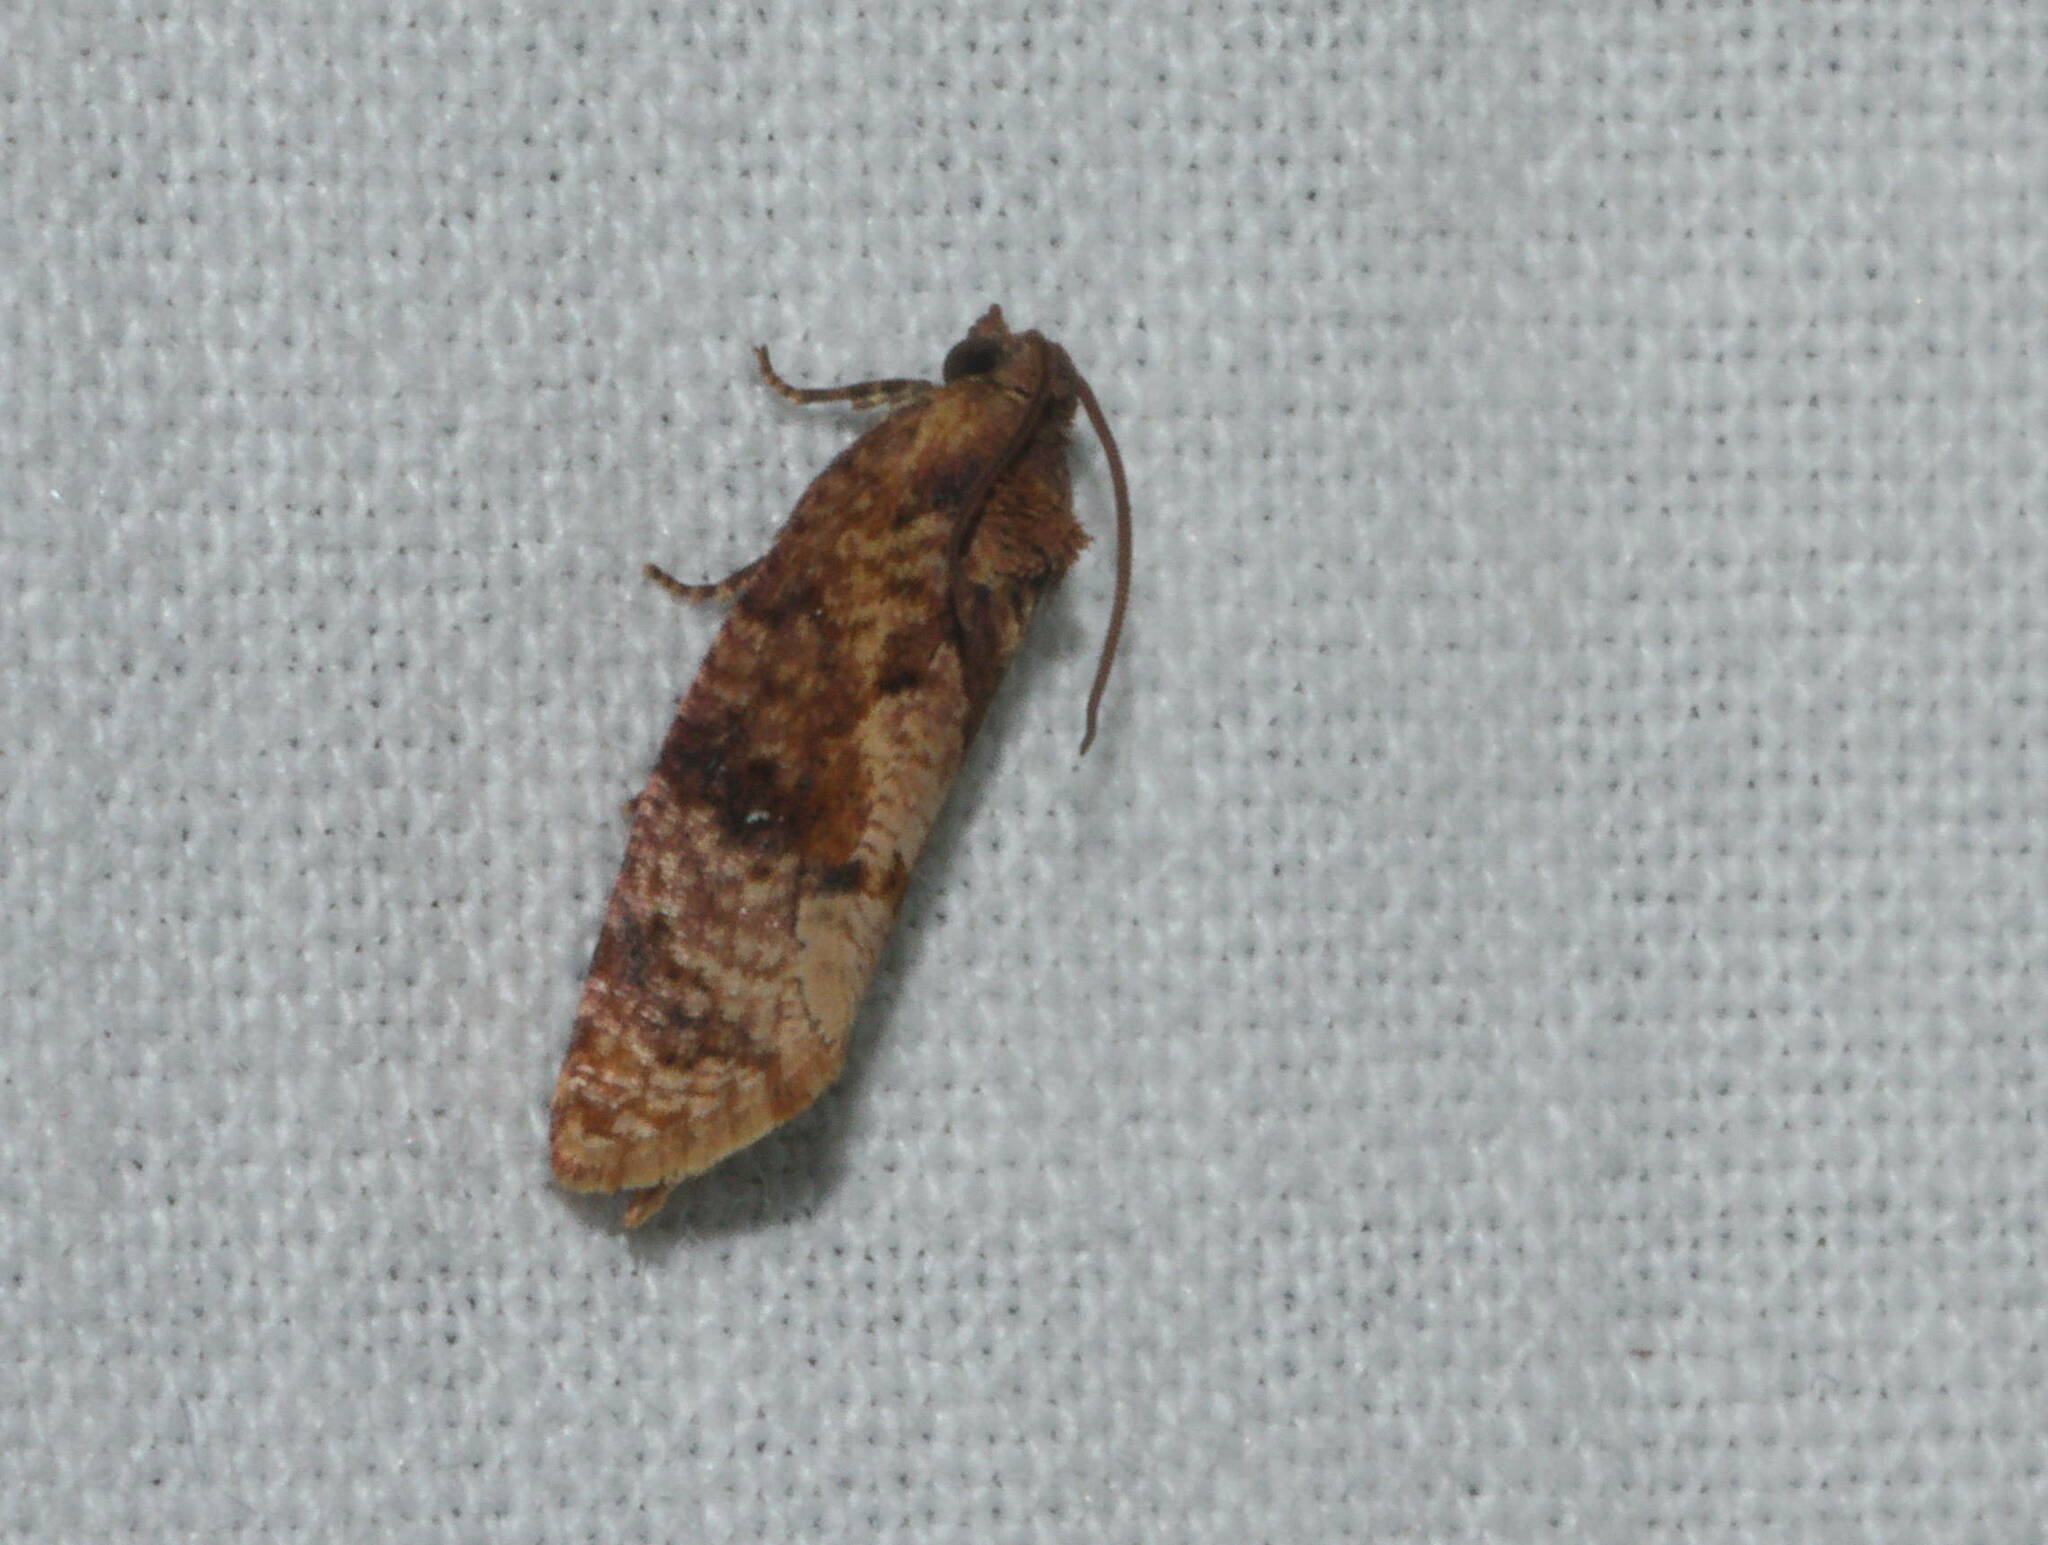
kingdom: Animalia
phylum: Arthropoda
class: Insecta
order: Lepidoptera
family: Tortricidae
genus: Cryptophlebia
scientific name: Cryptophlebia illepida
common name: Moth
